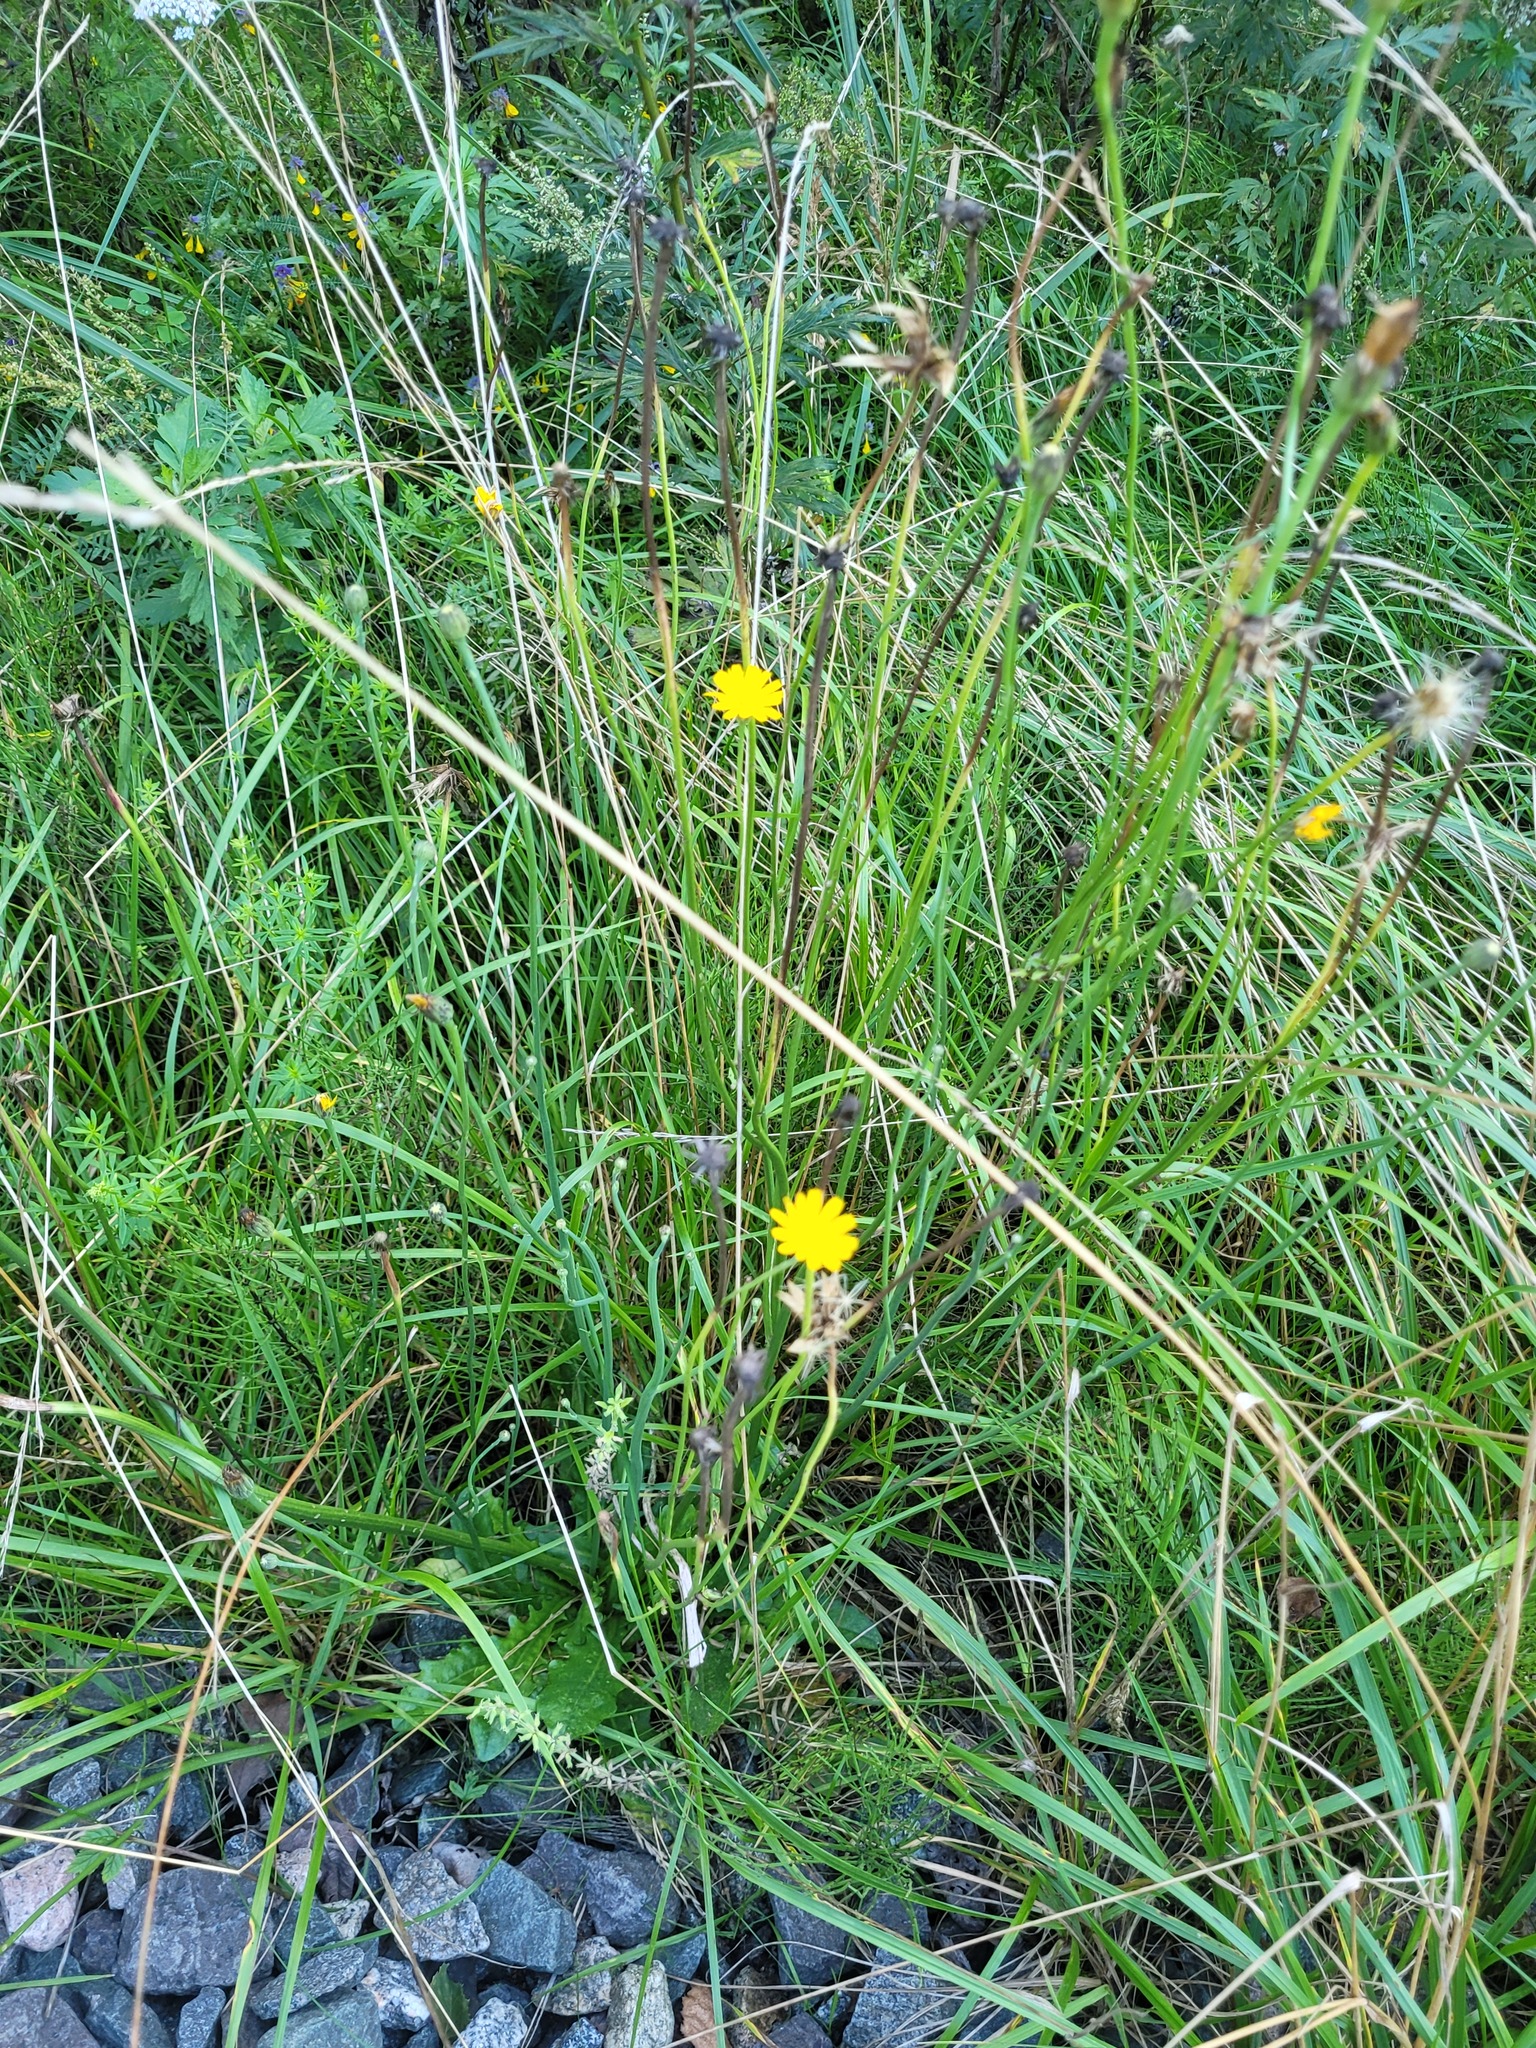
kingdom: Plantae
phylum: Tracheophyta
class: Magnoliopsida
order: Asterales
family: Asteraceae
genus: Hypochaeris
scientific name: Hypochaeris radicata
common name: Flatweed
